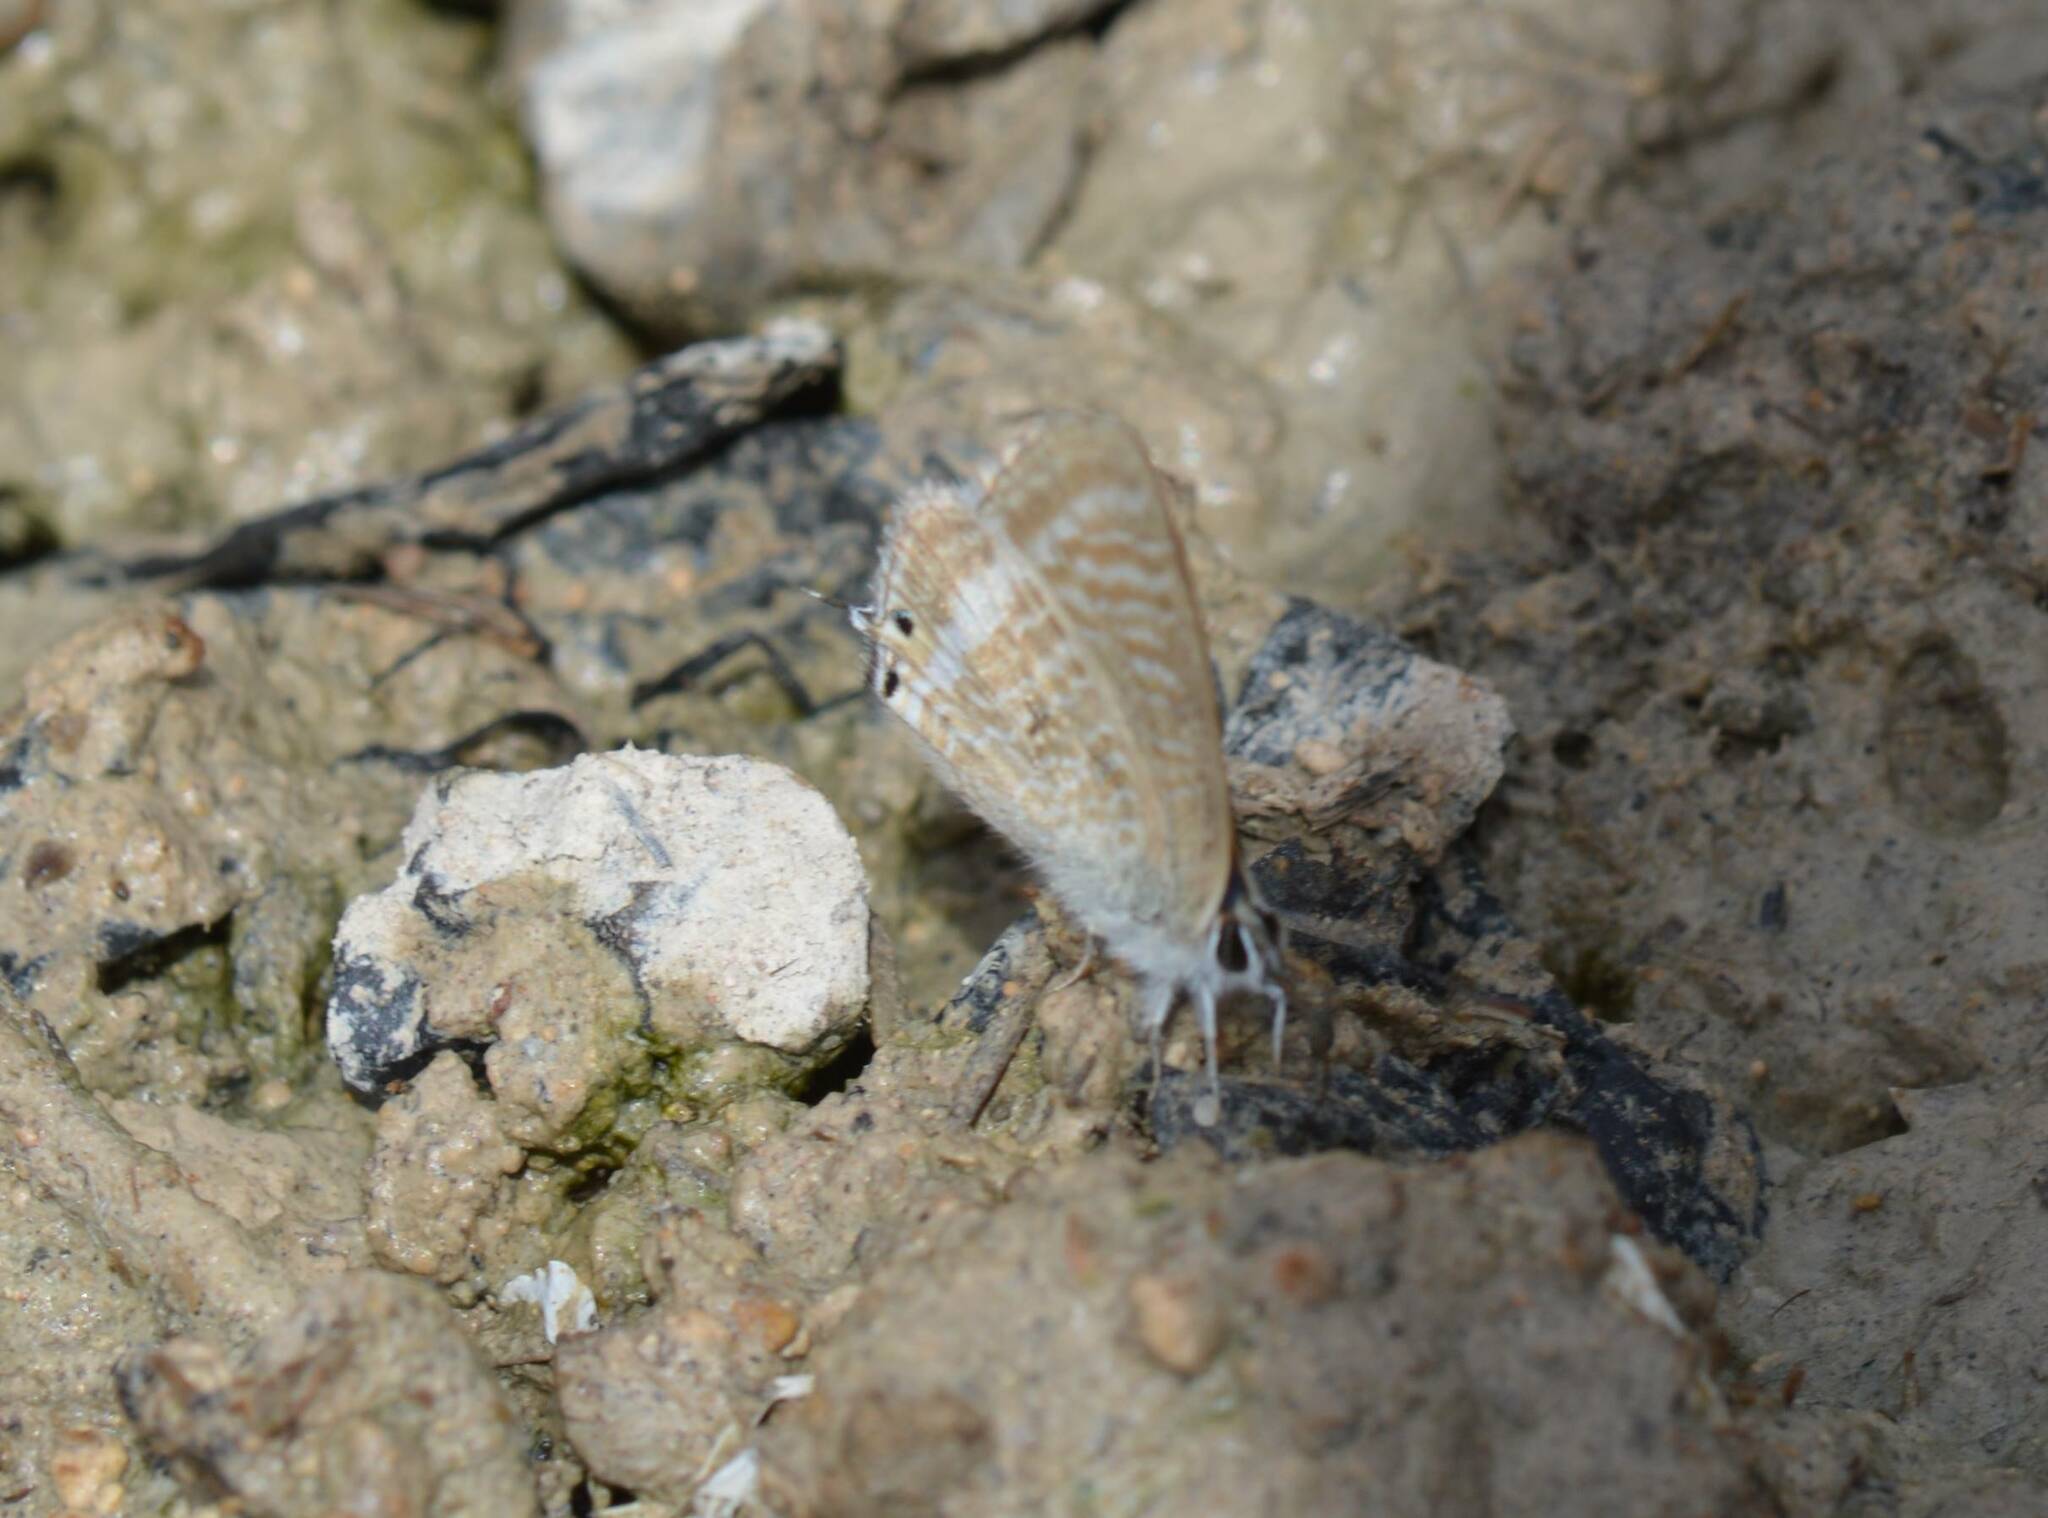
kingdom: Animalia
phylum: Arthropoda
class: Insecta
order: Lepidoptera
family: Lycaenidae
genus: Lampides
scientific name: Lampides boeticus
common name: Long-tailed blue
